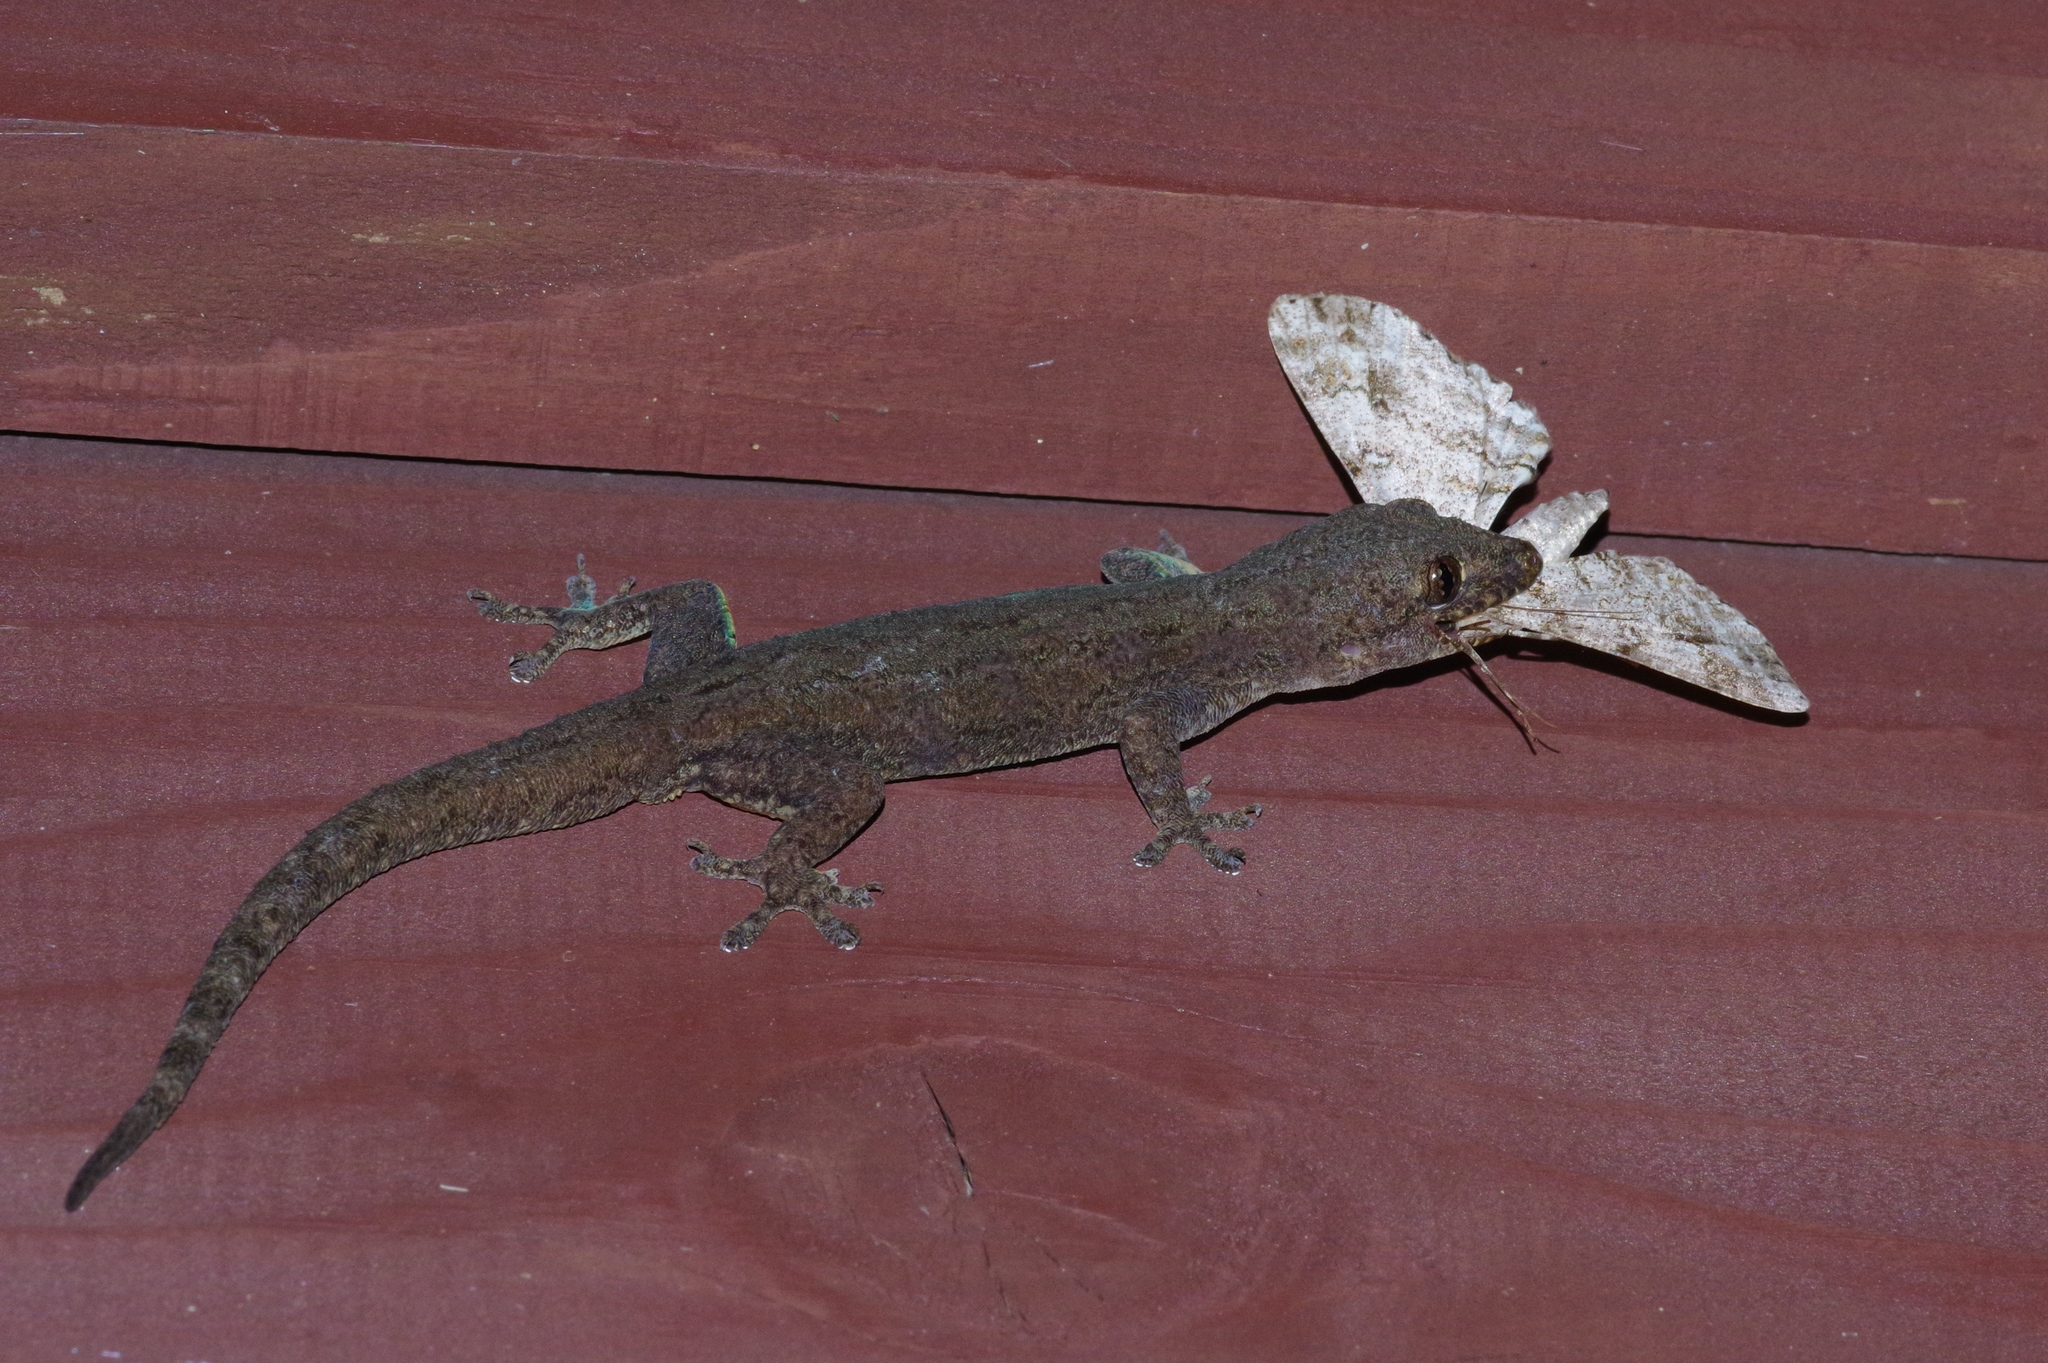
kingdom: Animalia
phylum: Chordata
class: Squamata
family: Gekkonidae
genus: Hemidactylus
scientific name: Hemidactylus frenatus
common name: Common house gecko
